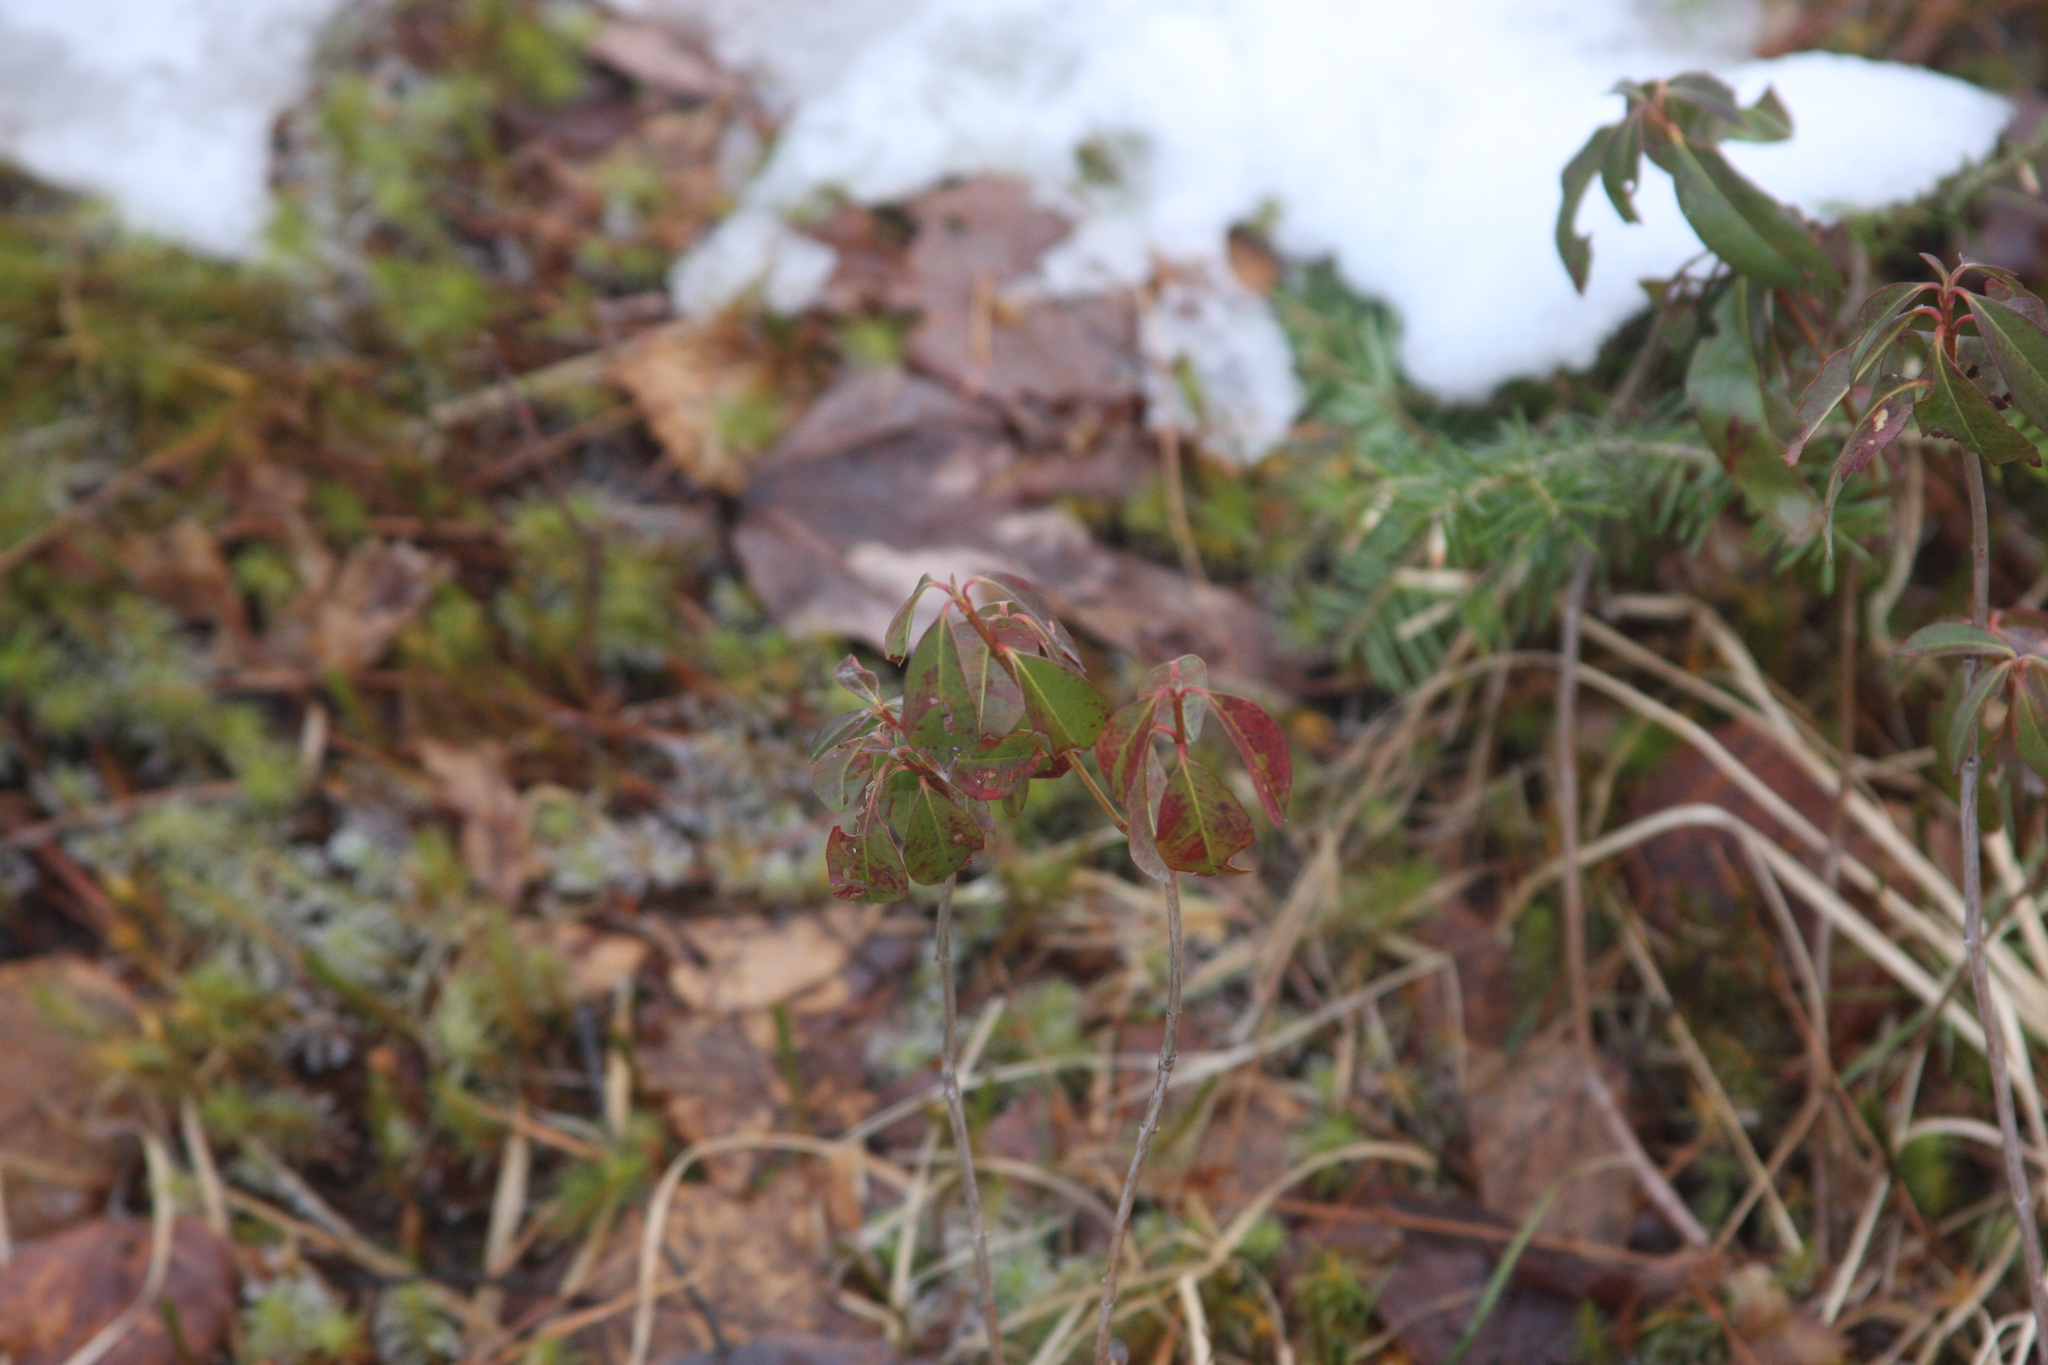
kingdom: Plantae
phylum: Tracheophyta
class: Magnoliopsida
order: Ericales
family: Ericaceae
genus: Kalmia
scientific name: Kalmia angustifolia
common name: Sheep-laurel
